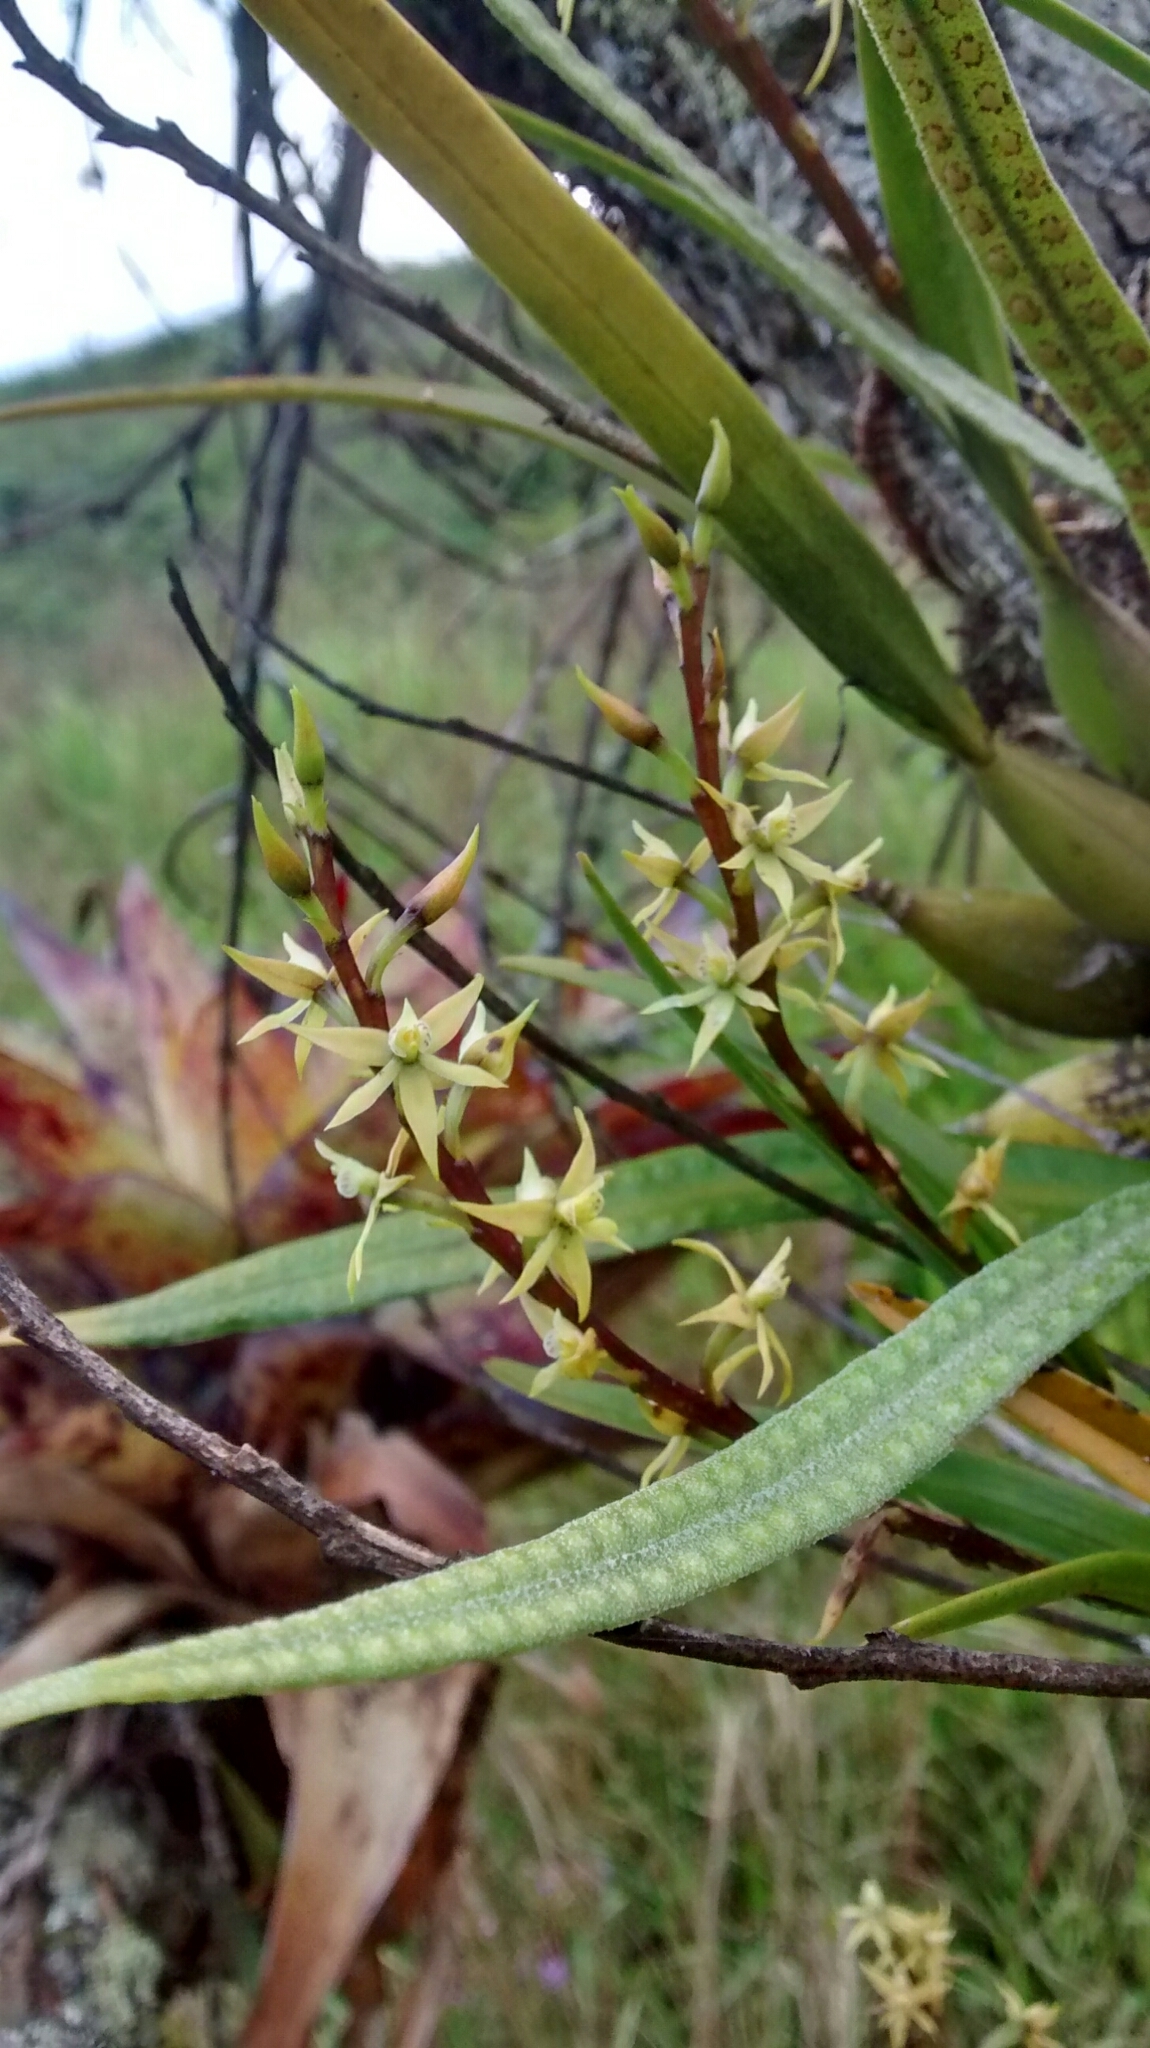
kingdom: Plantae
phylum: Tracheophyta
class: Liliopsida
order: Asparagales
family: Orchidaceae
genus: Prosthechea
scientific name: Prosthechea grammatoglossa
